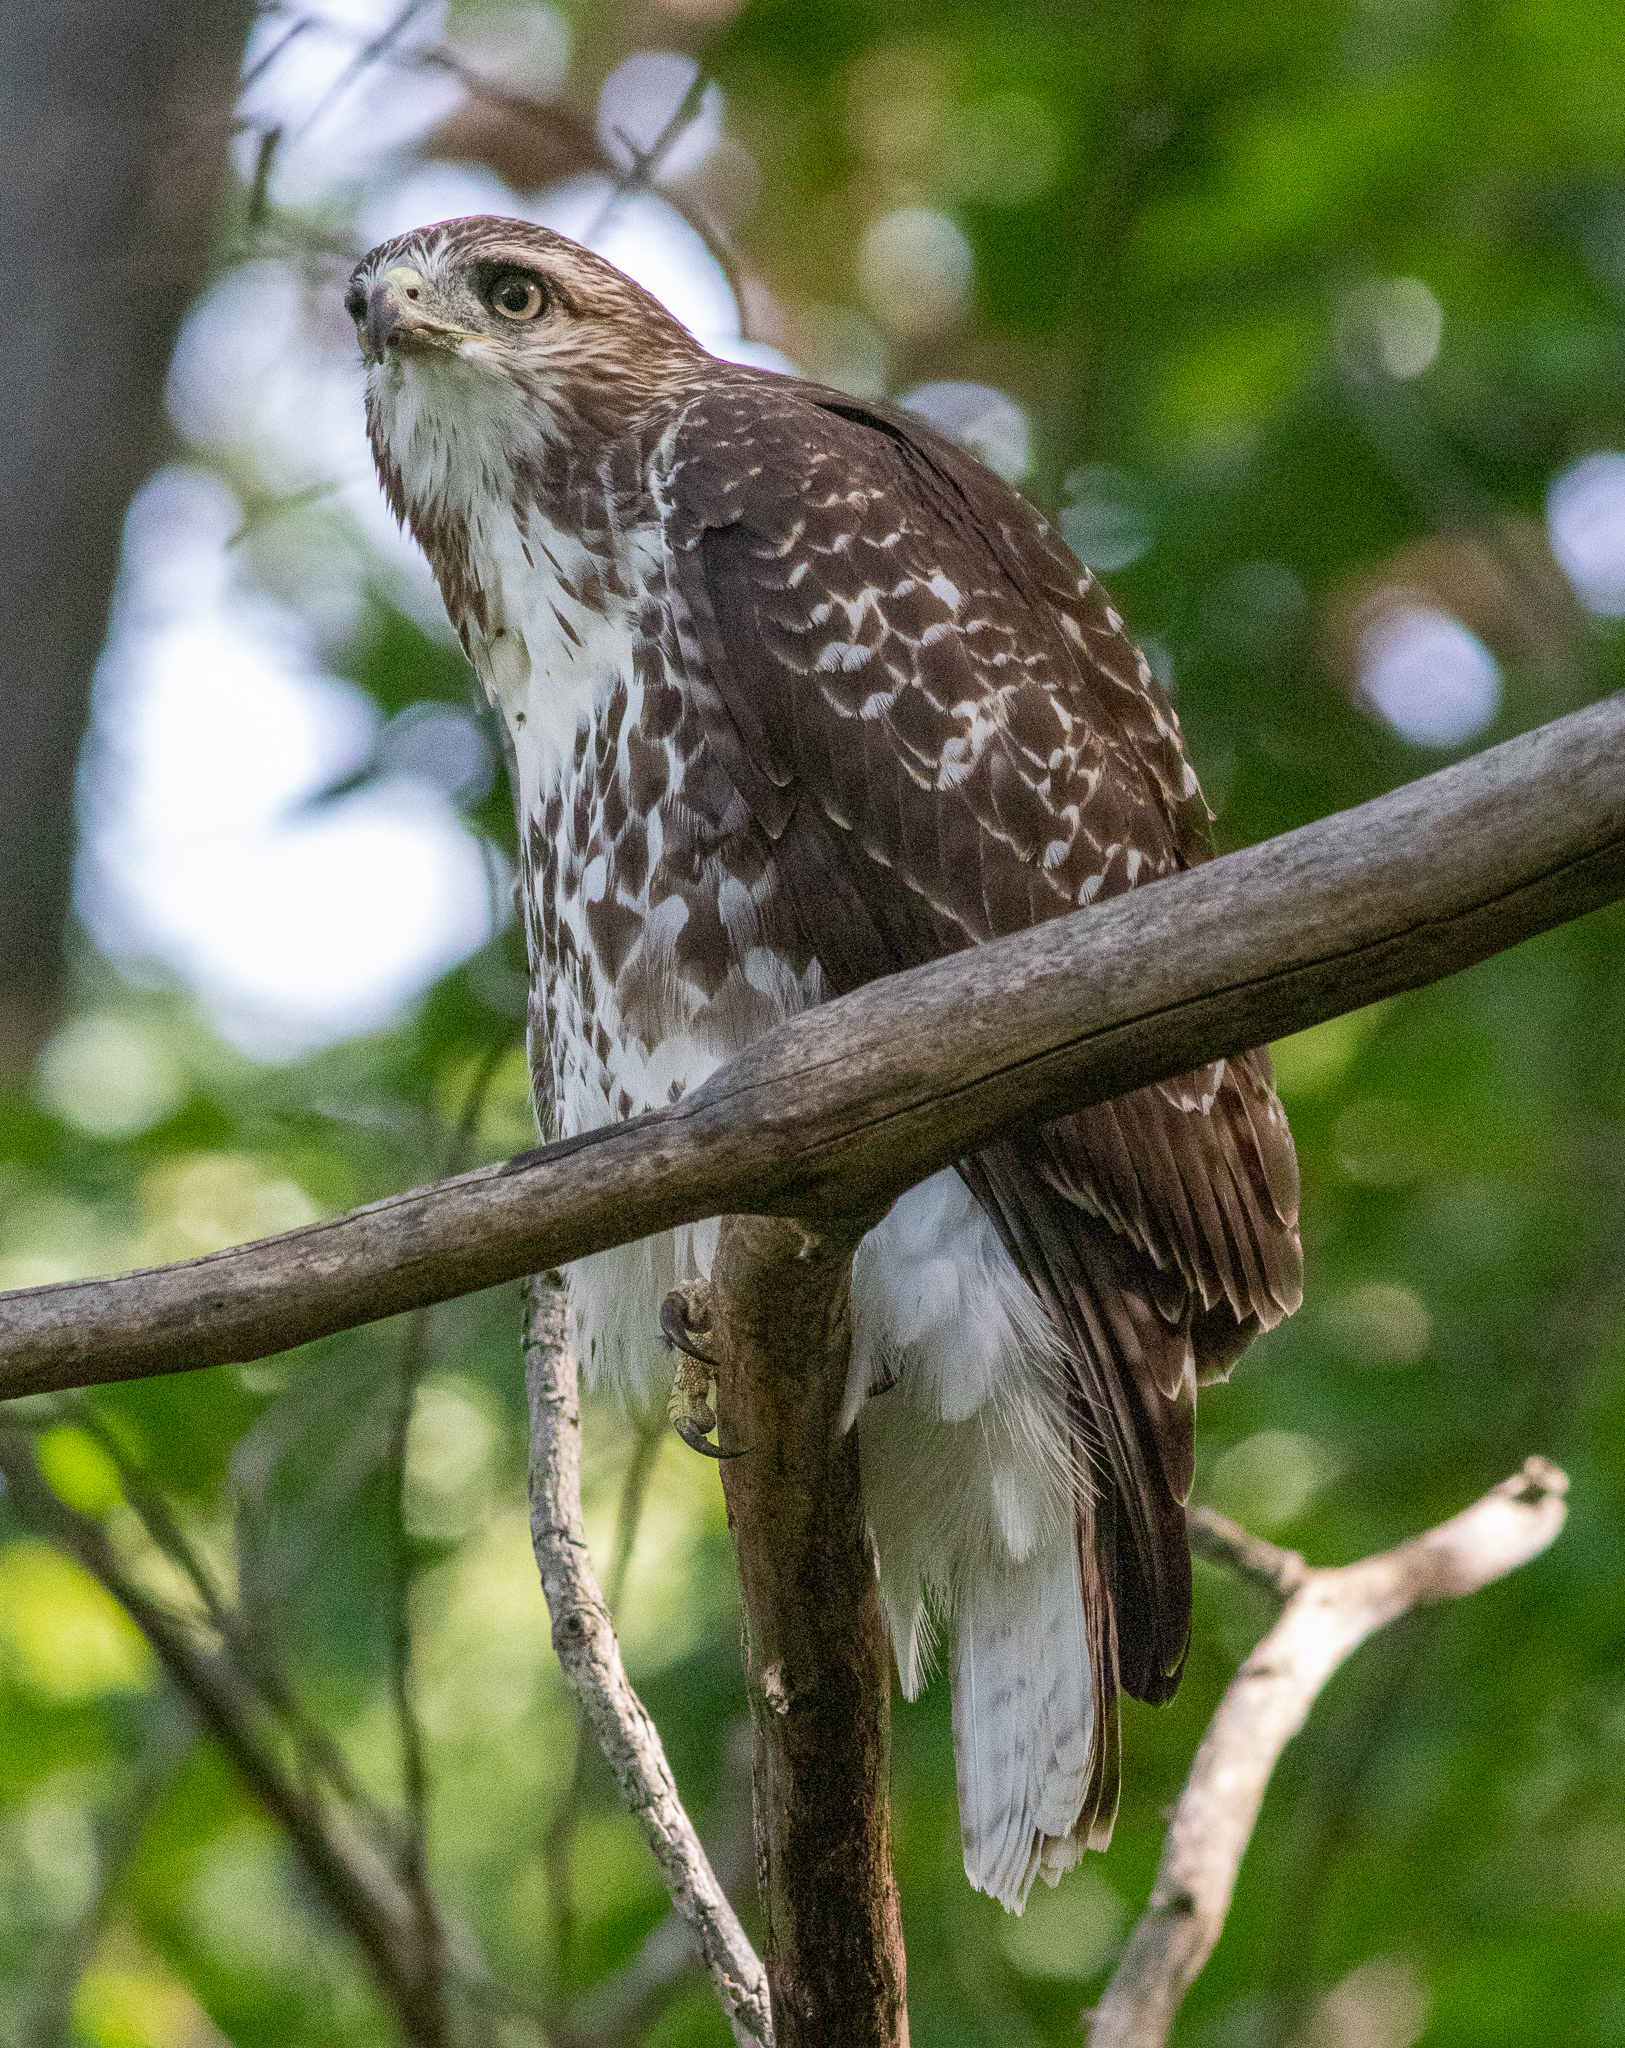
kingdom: Animalia
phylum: Chordata
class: Aves
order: Accipitriformes
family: Accipitridae
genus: Buteo
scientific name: Buteo jamaicensis
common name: Red-tailed hawk
